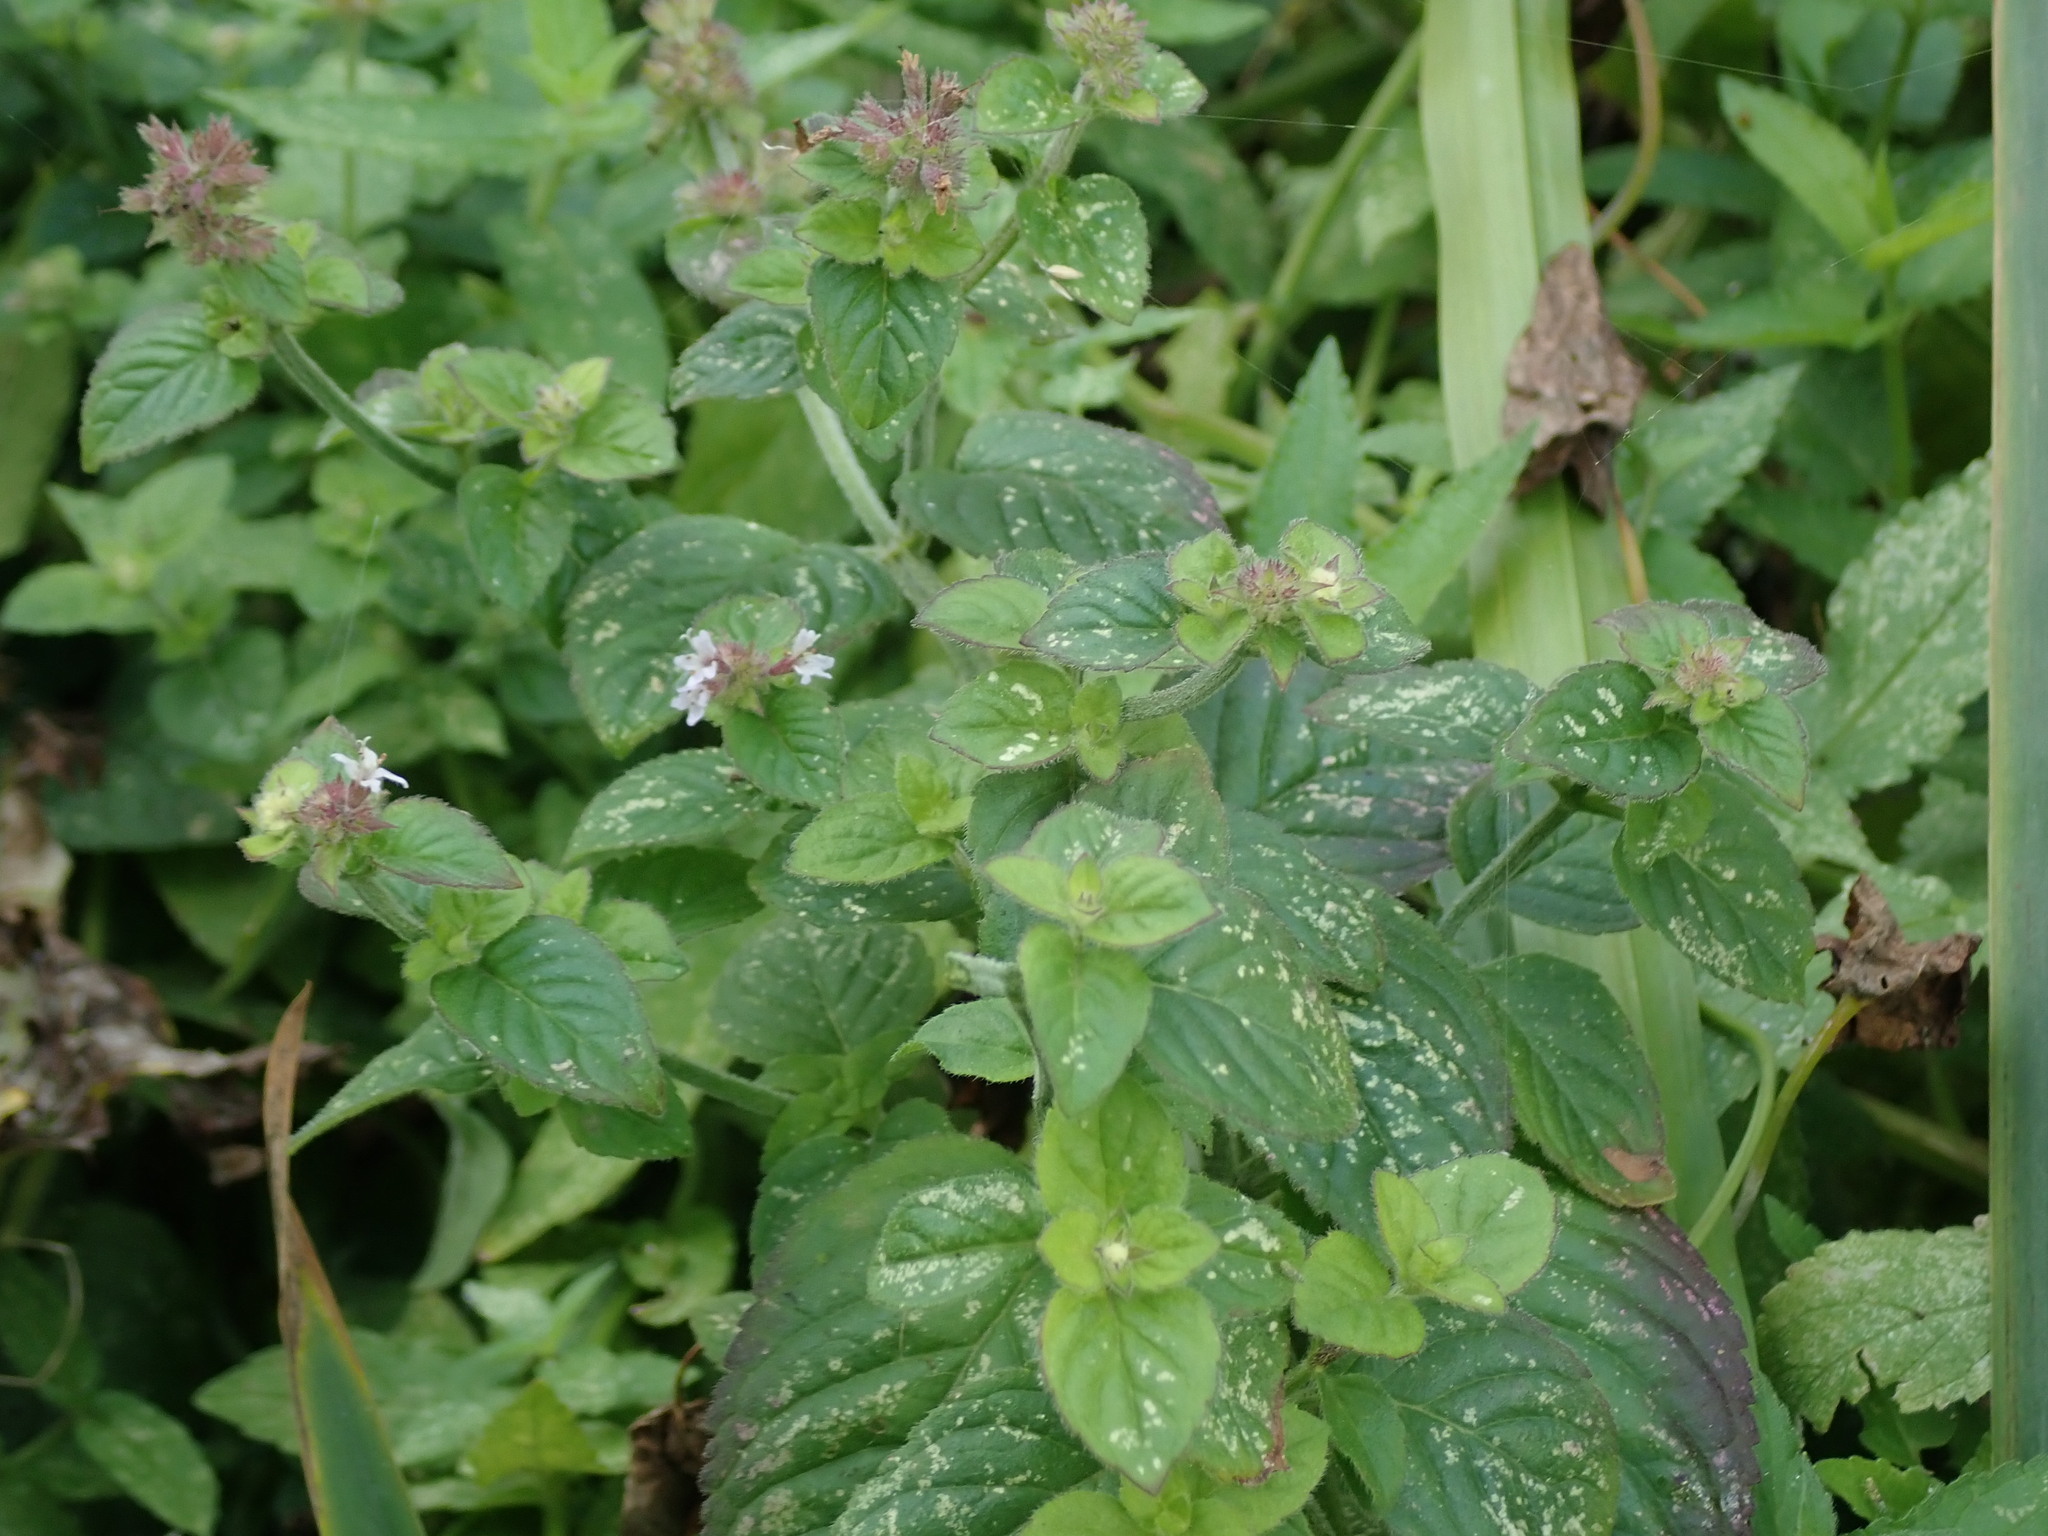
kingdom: Plantae
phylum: Tracheophyta
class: Magnoliopsida
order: Lamiales
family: Lamiaceae
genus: Mentha
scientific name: Mentha aquatica
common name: Water mint
